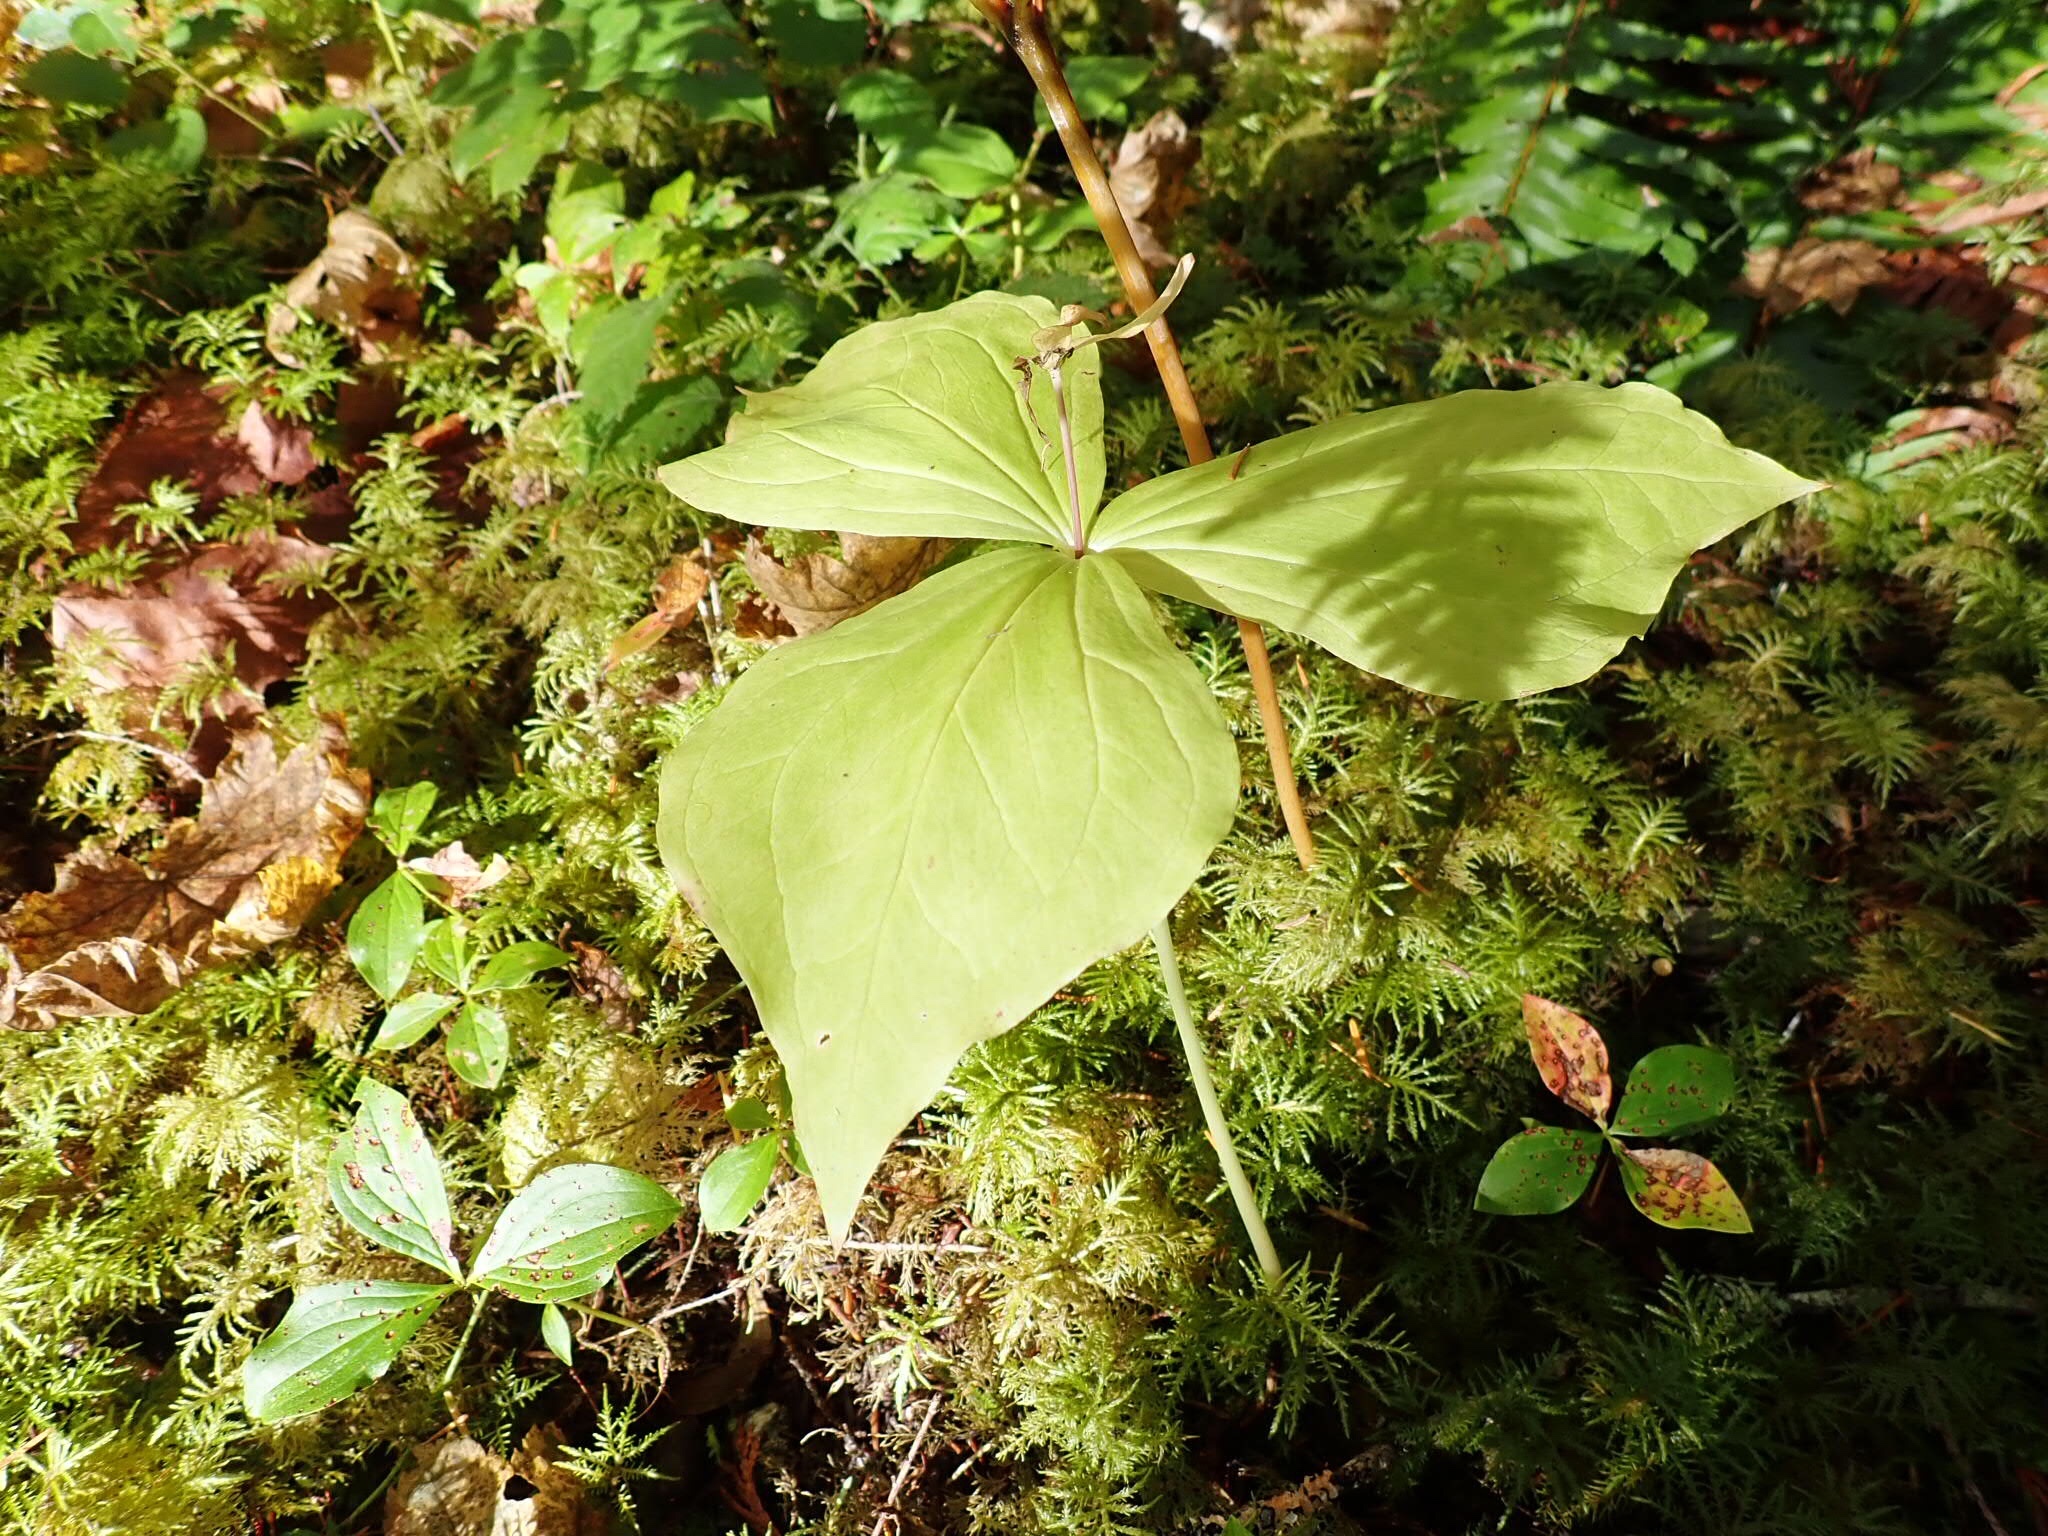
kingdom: Plantae
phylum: Tracheophyta
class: Liliopsida
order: Liliales
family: Melanthiaceae
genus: Trillium
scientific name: Trillium ovatum
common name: Pacific trillium
